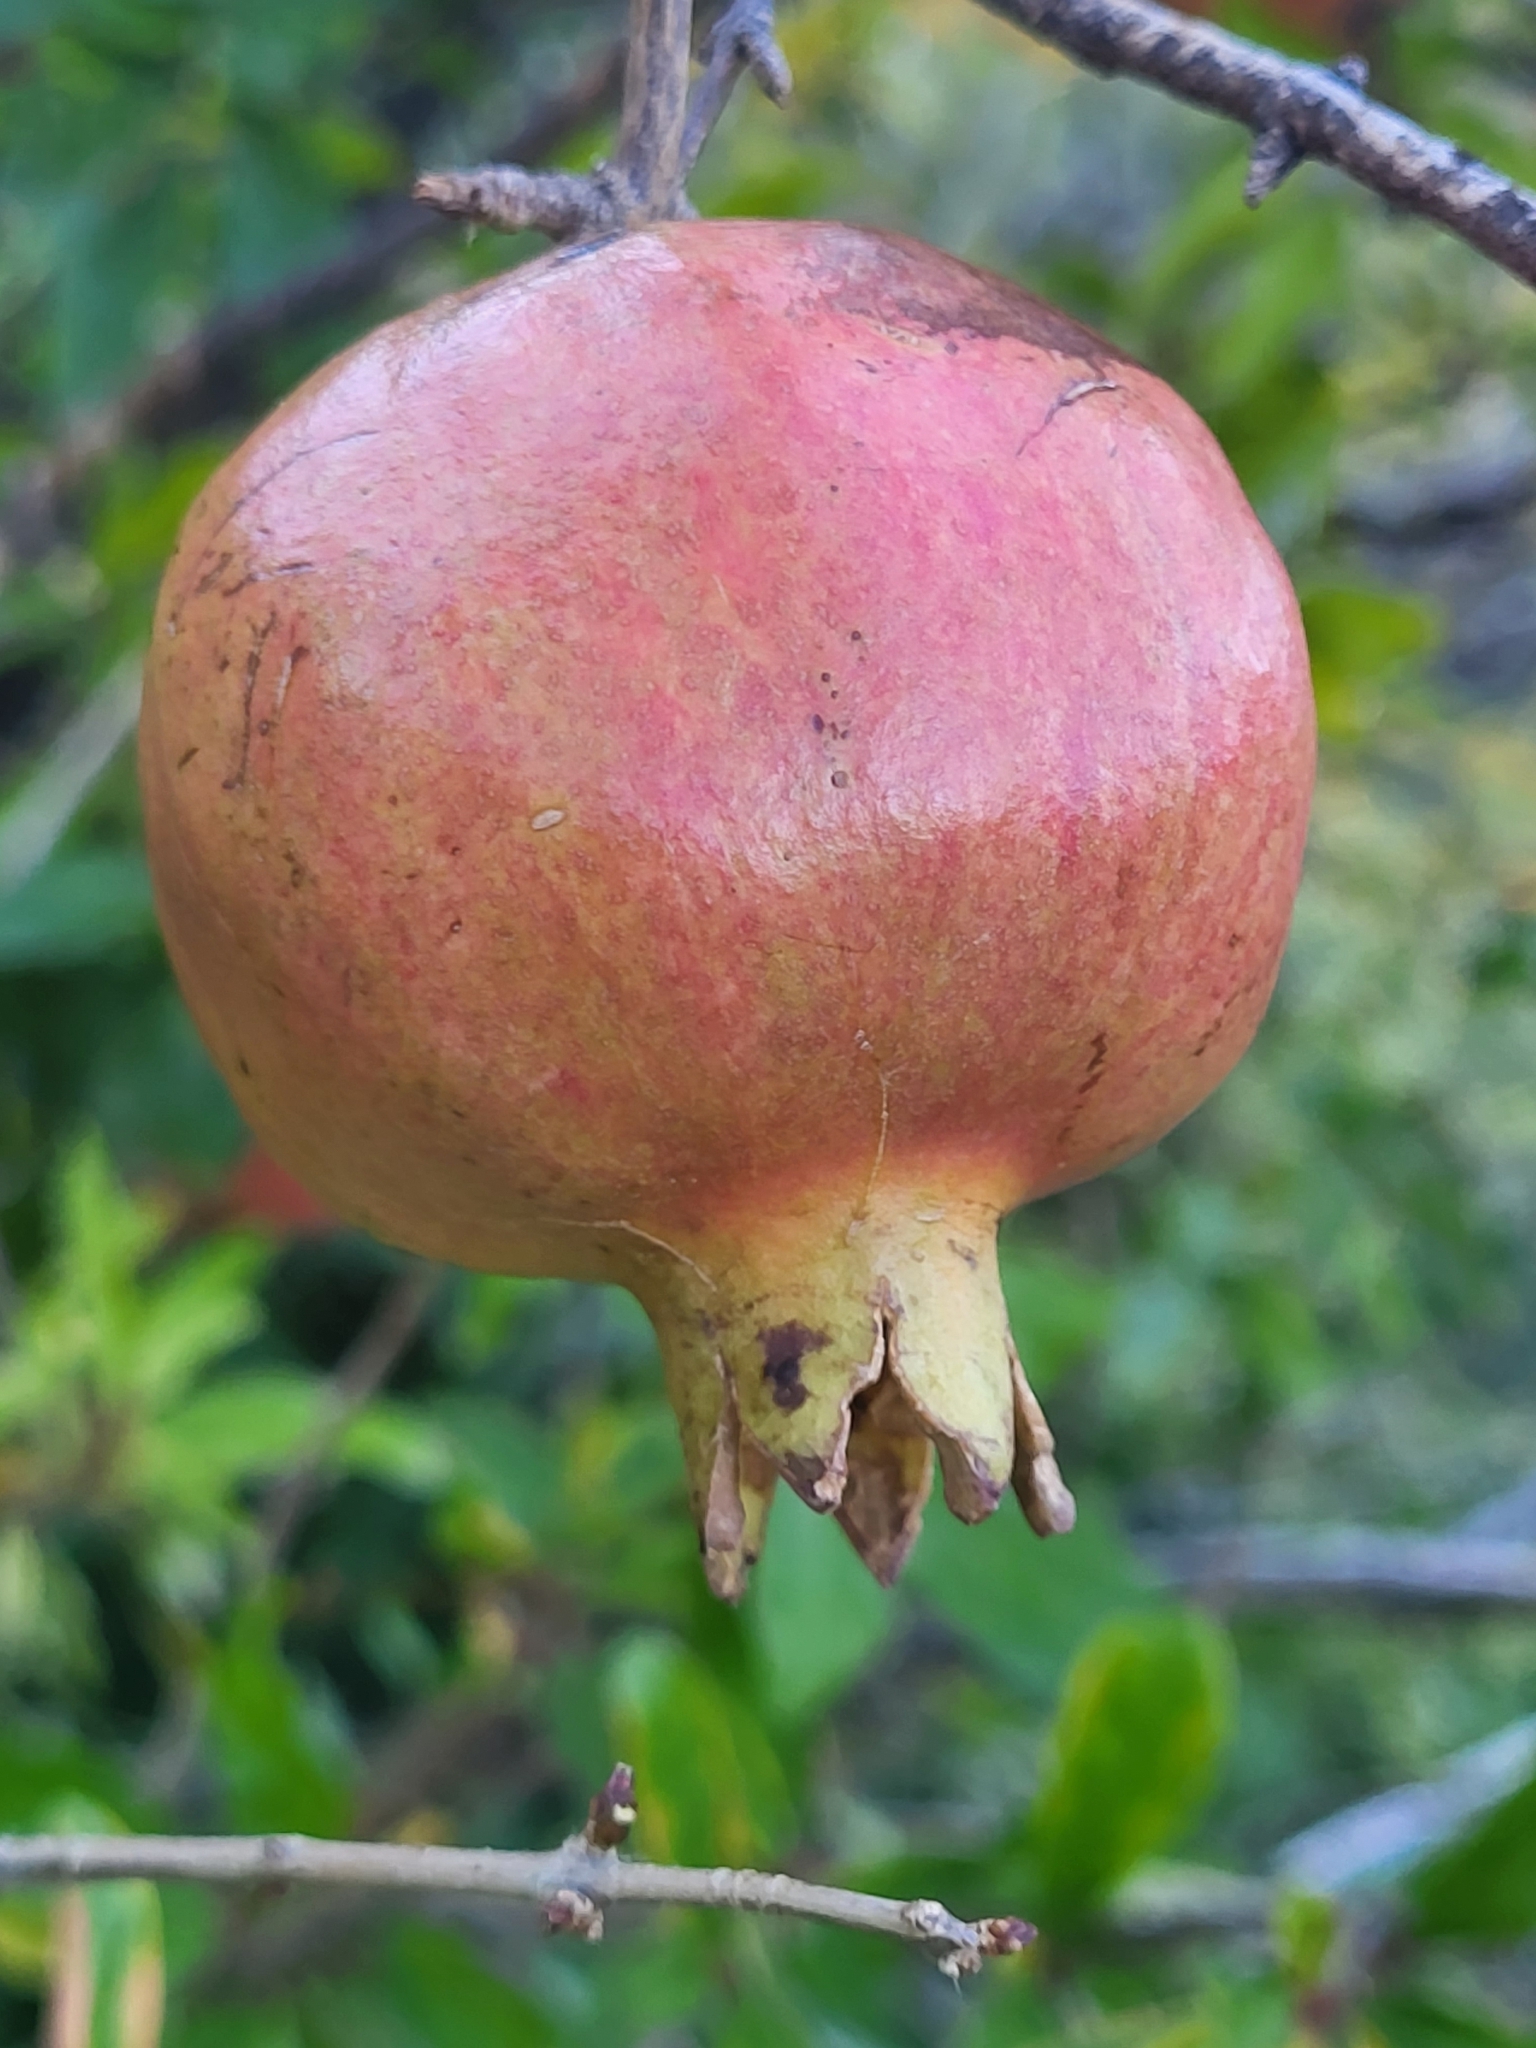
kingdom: Plantae
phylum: Tracheophyta
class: Magnoliopsida
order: Myrtales
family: Lythraceae
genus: Punica
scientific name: Punica granatum
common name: Pomegranate
